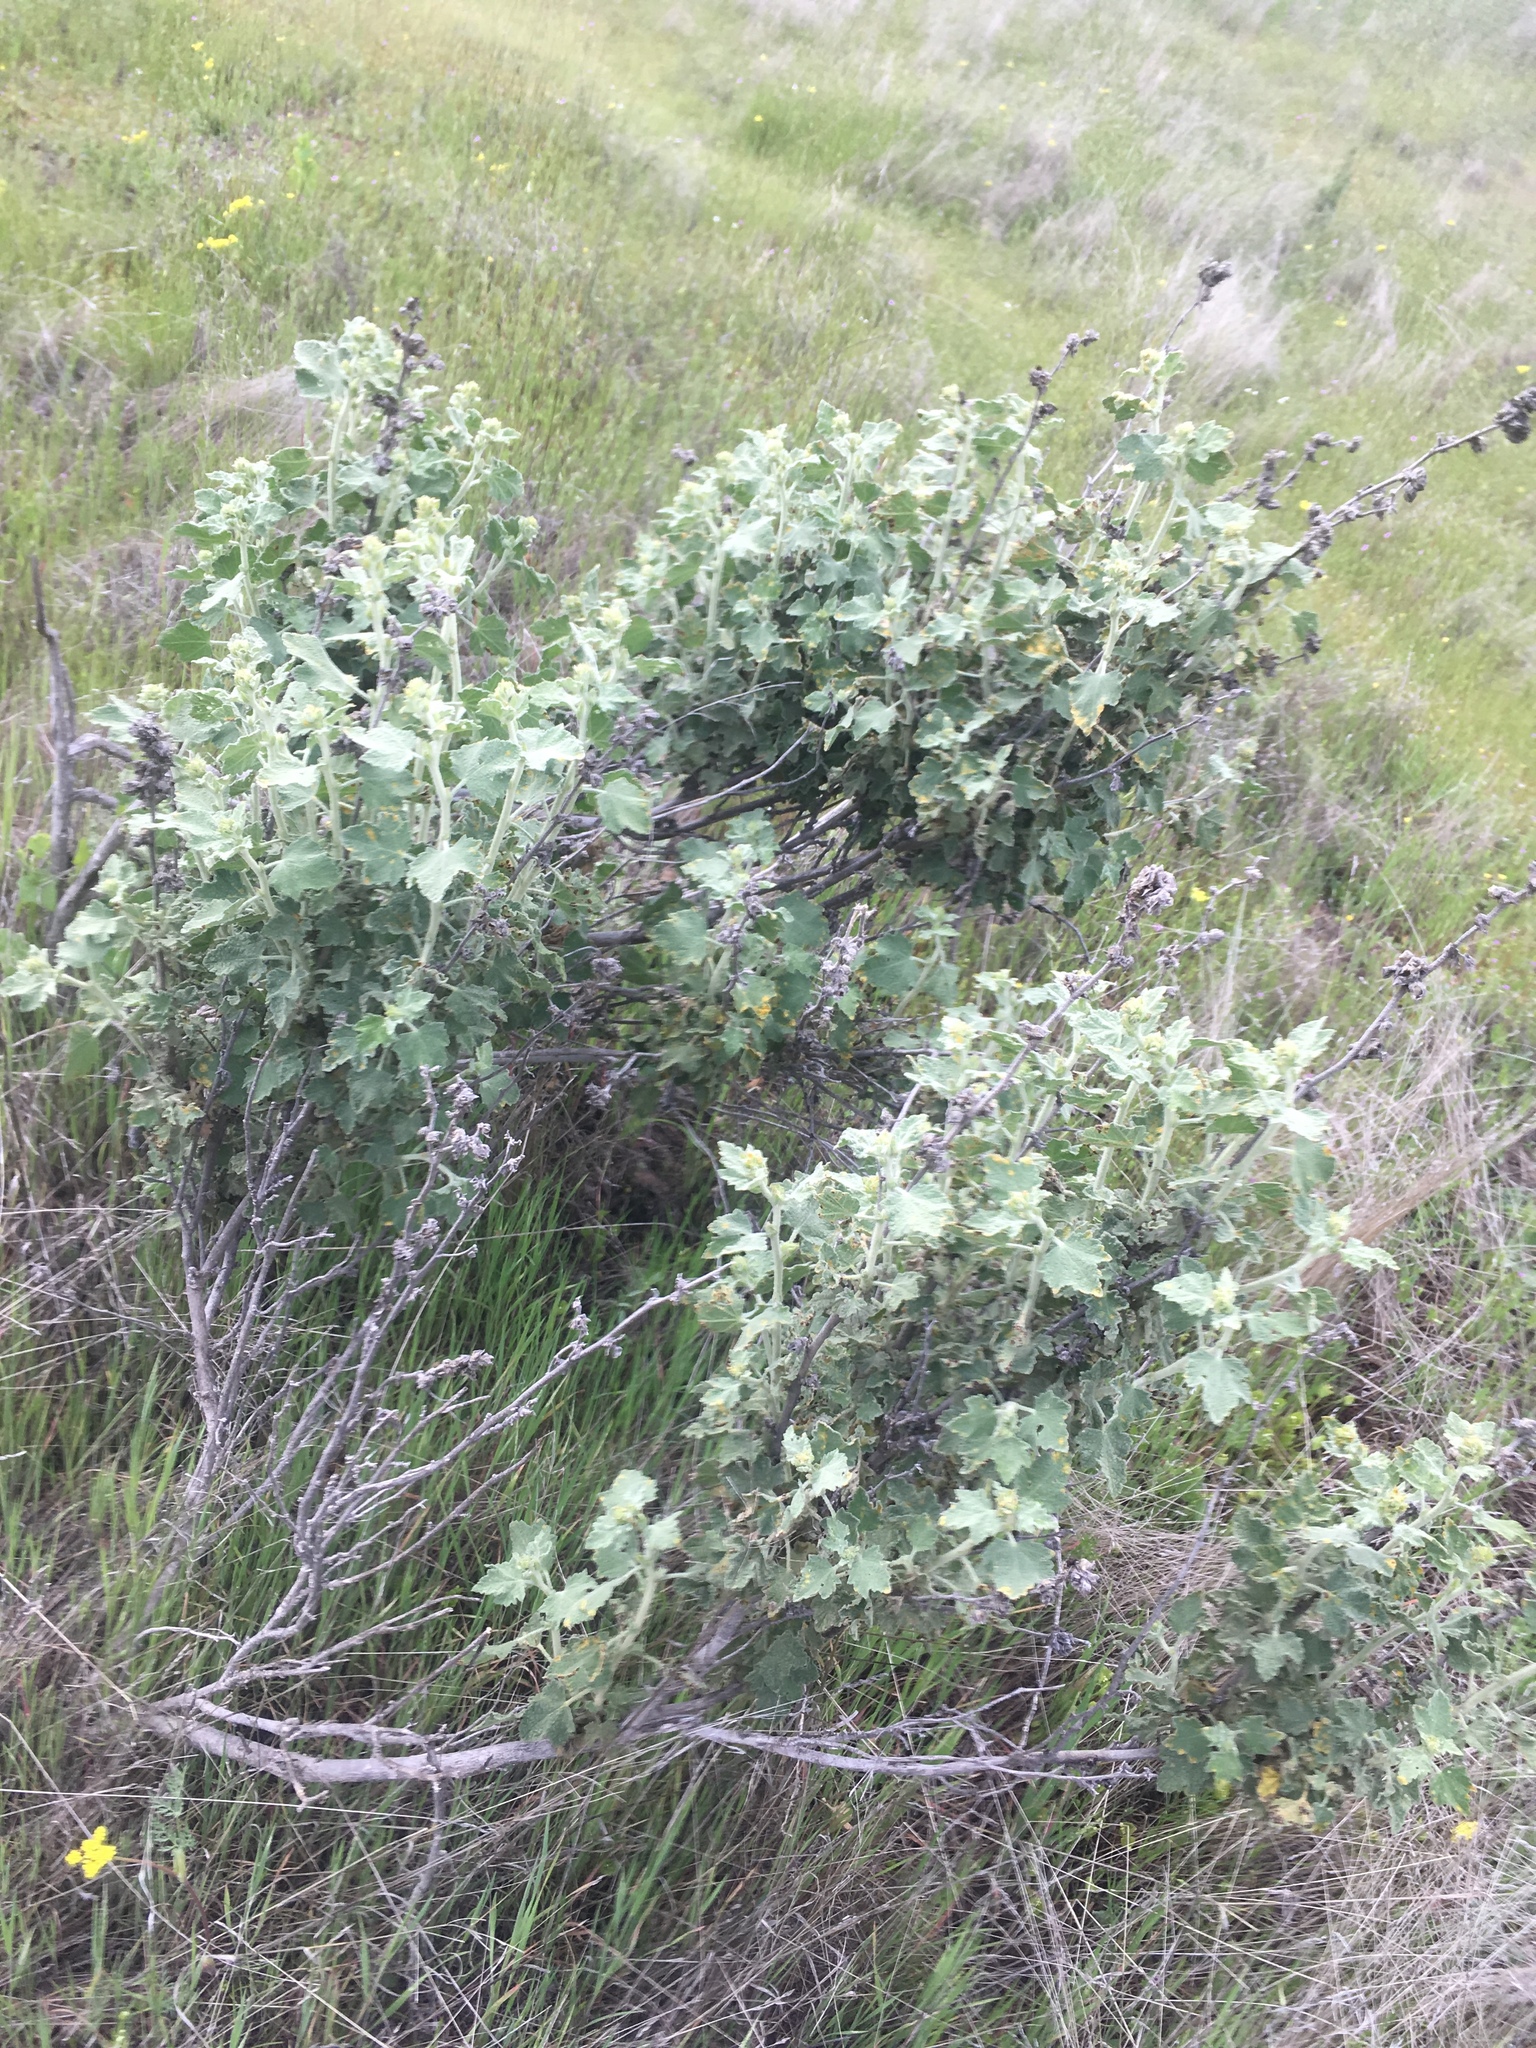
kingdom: Plantae
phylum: Tracheophyta
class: Magnoliopsida
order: Malvales
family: Malvaceae
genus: Malacothamnus
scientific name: Malacothamnus aboriginum
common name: Indian valley bush-mallow
